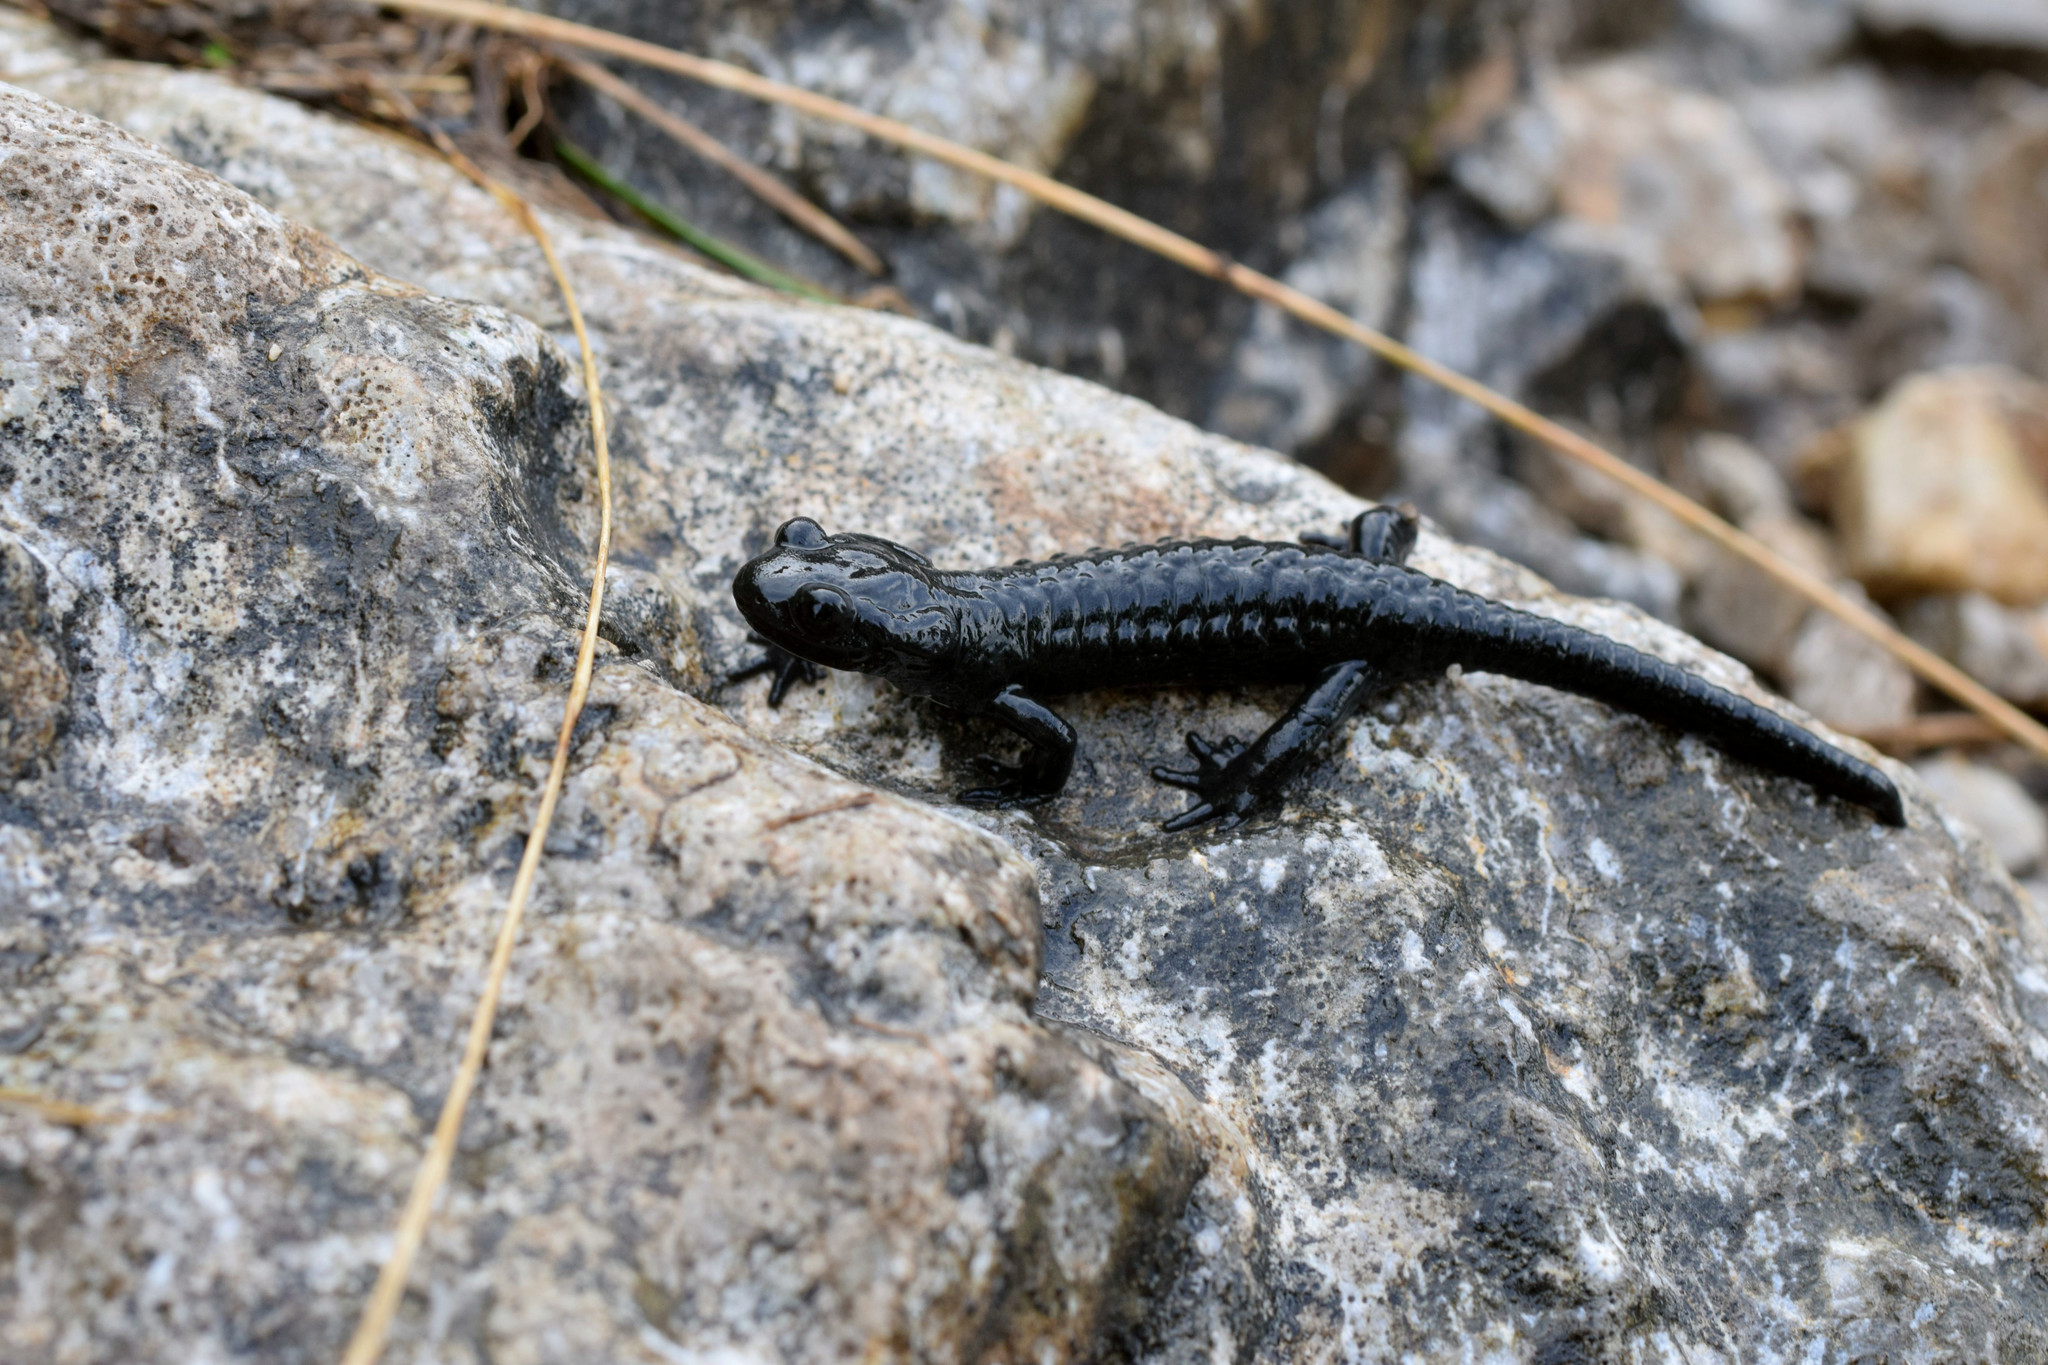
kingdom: Animalia
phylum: Chordata
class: Amphibia
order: Caudata
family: Salamandridae
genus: Salamandra
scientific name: Salamandra atra
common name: Alpine salamander
